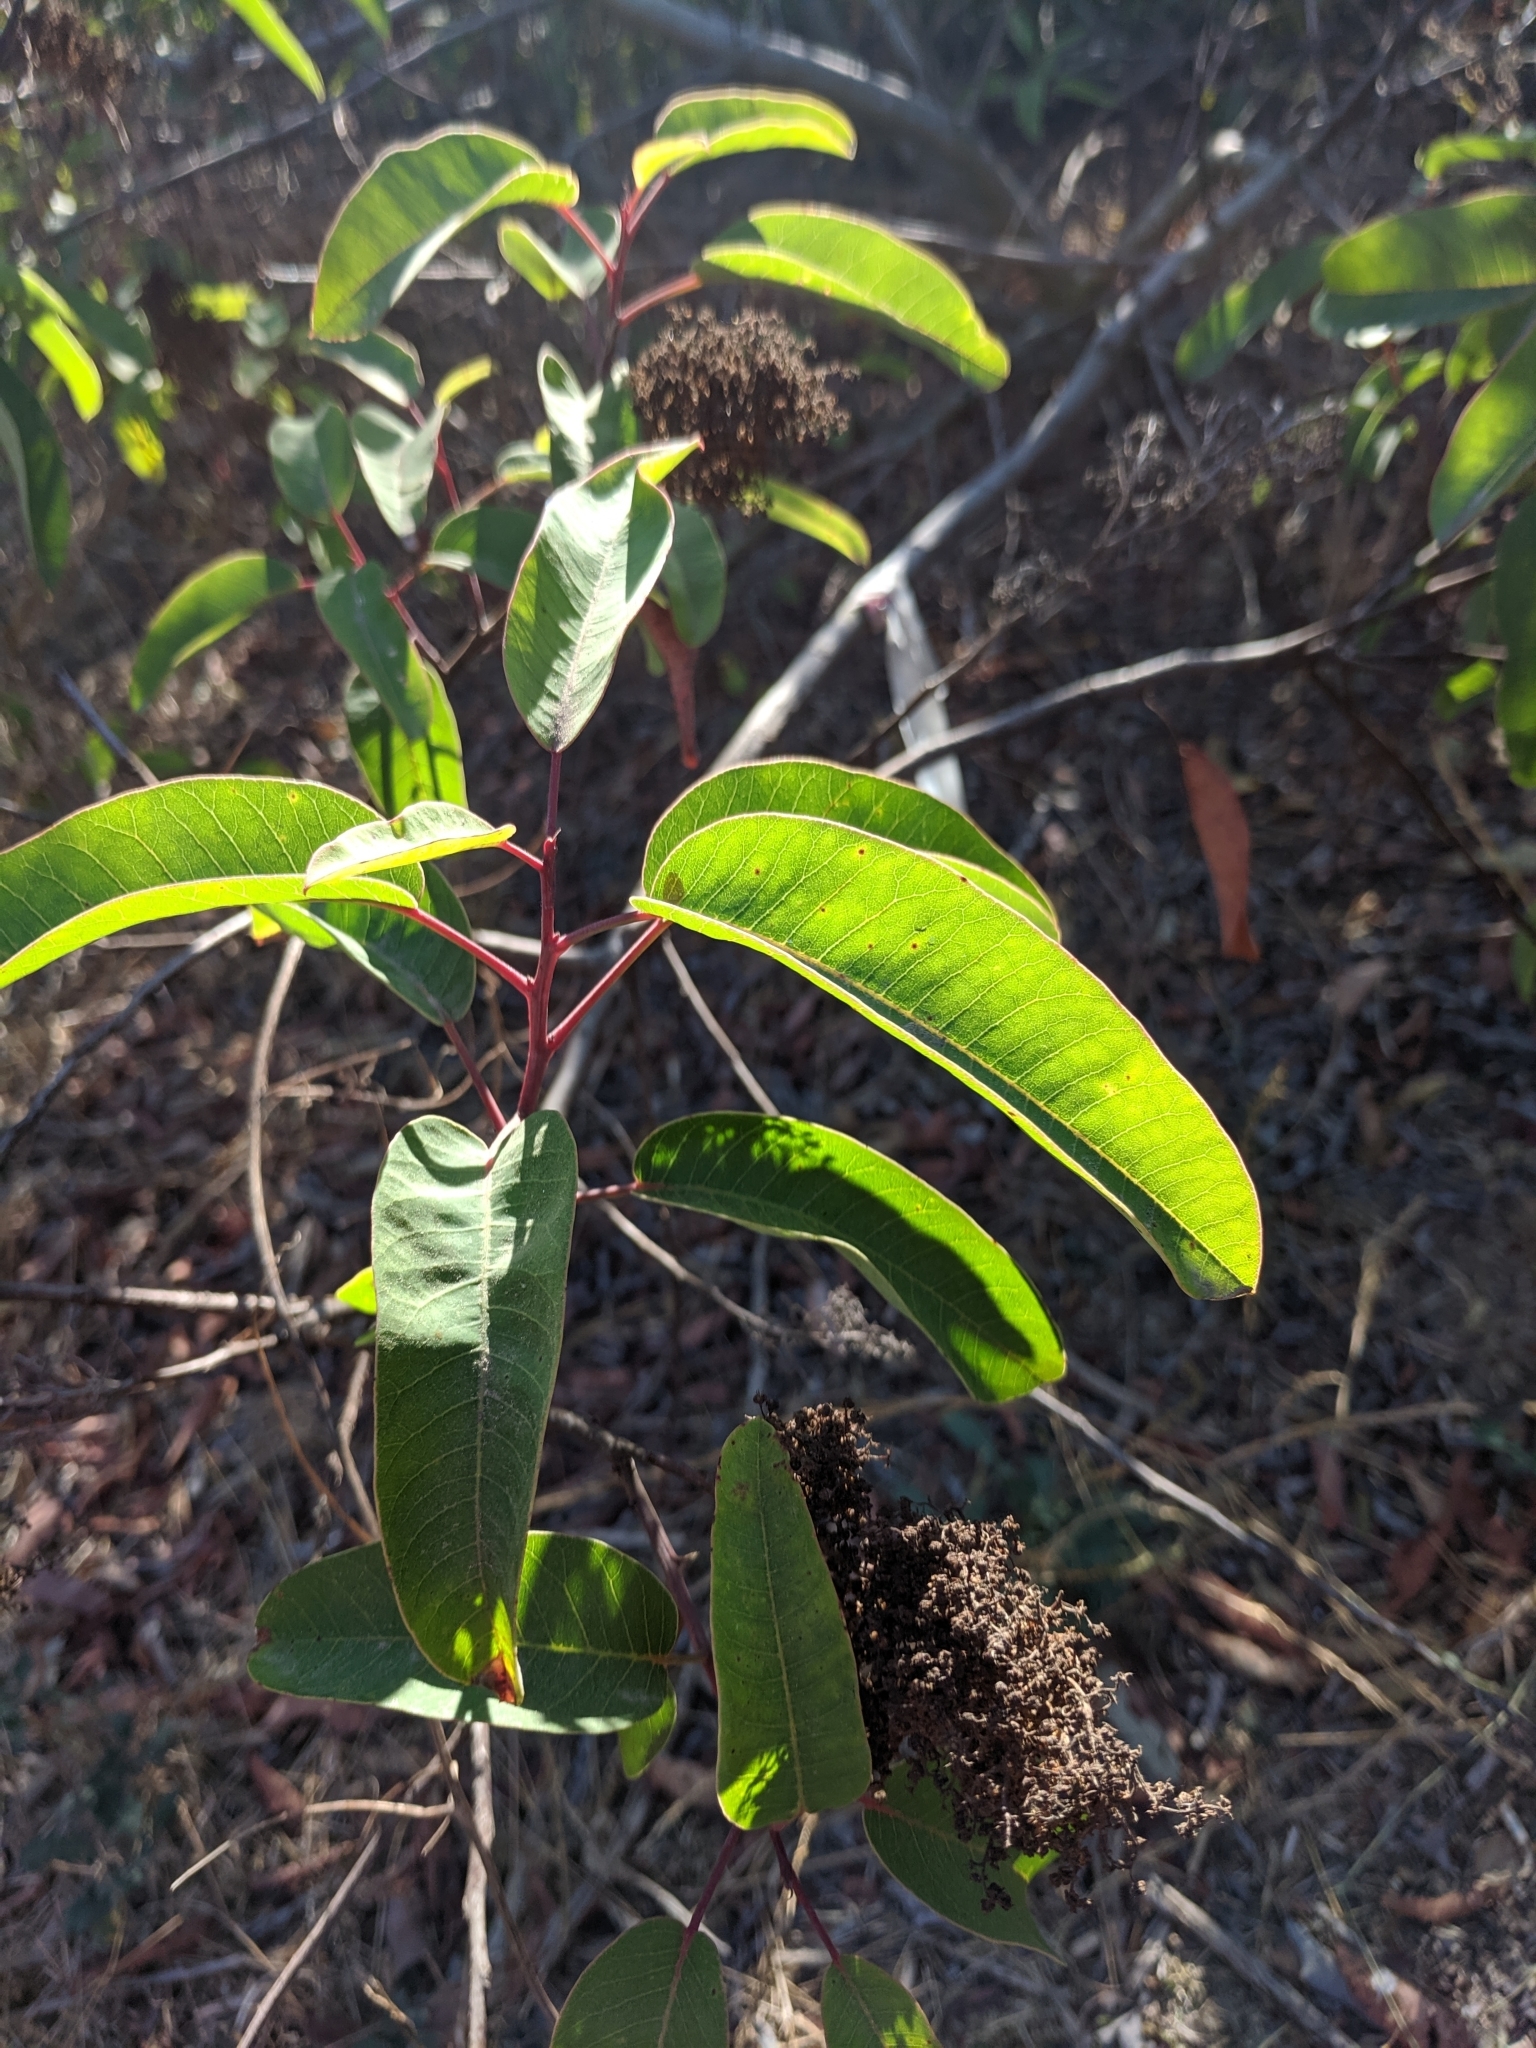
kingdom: Plantae
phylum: Tracheophyta
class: Magnoliopsida
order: Sapindales
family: Anacardiaceae
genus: Malosma
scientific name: Malosma laurina
